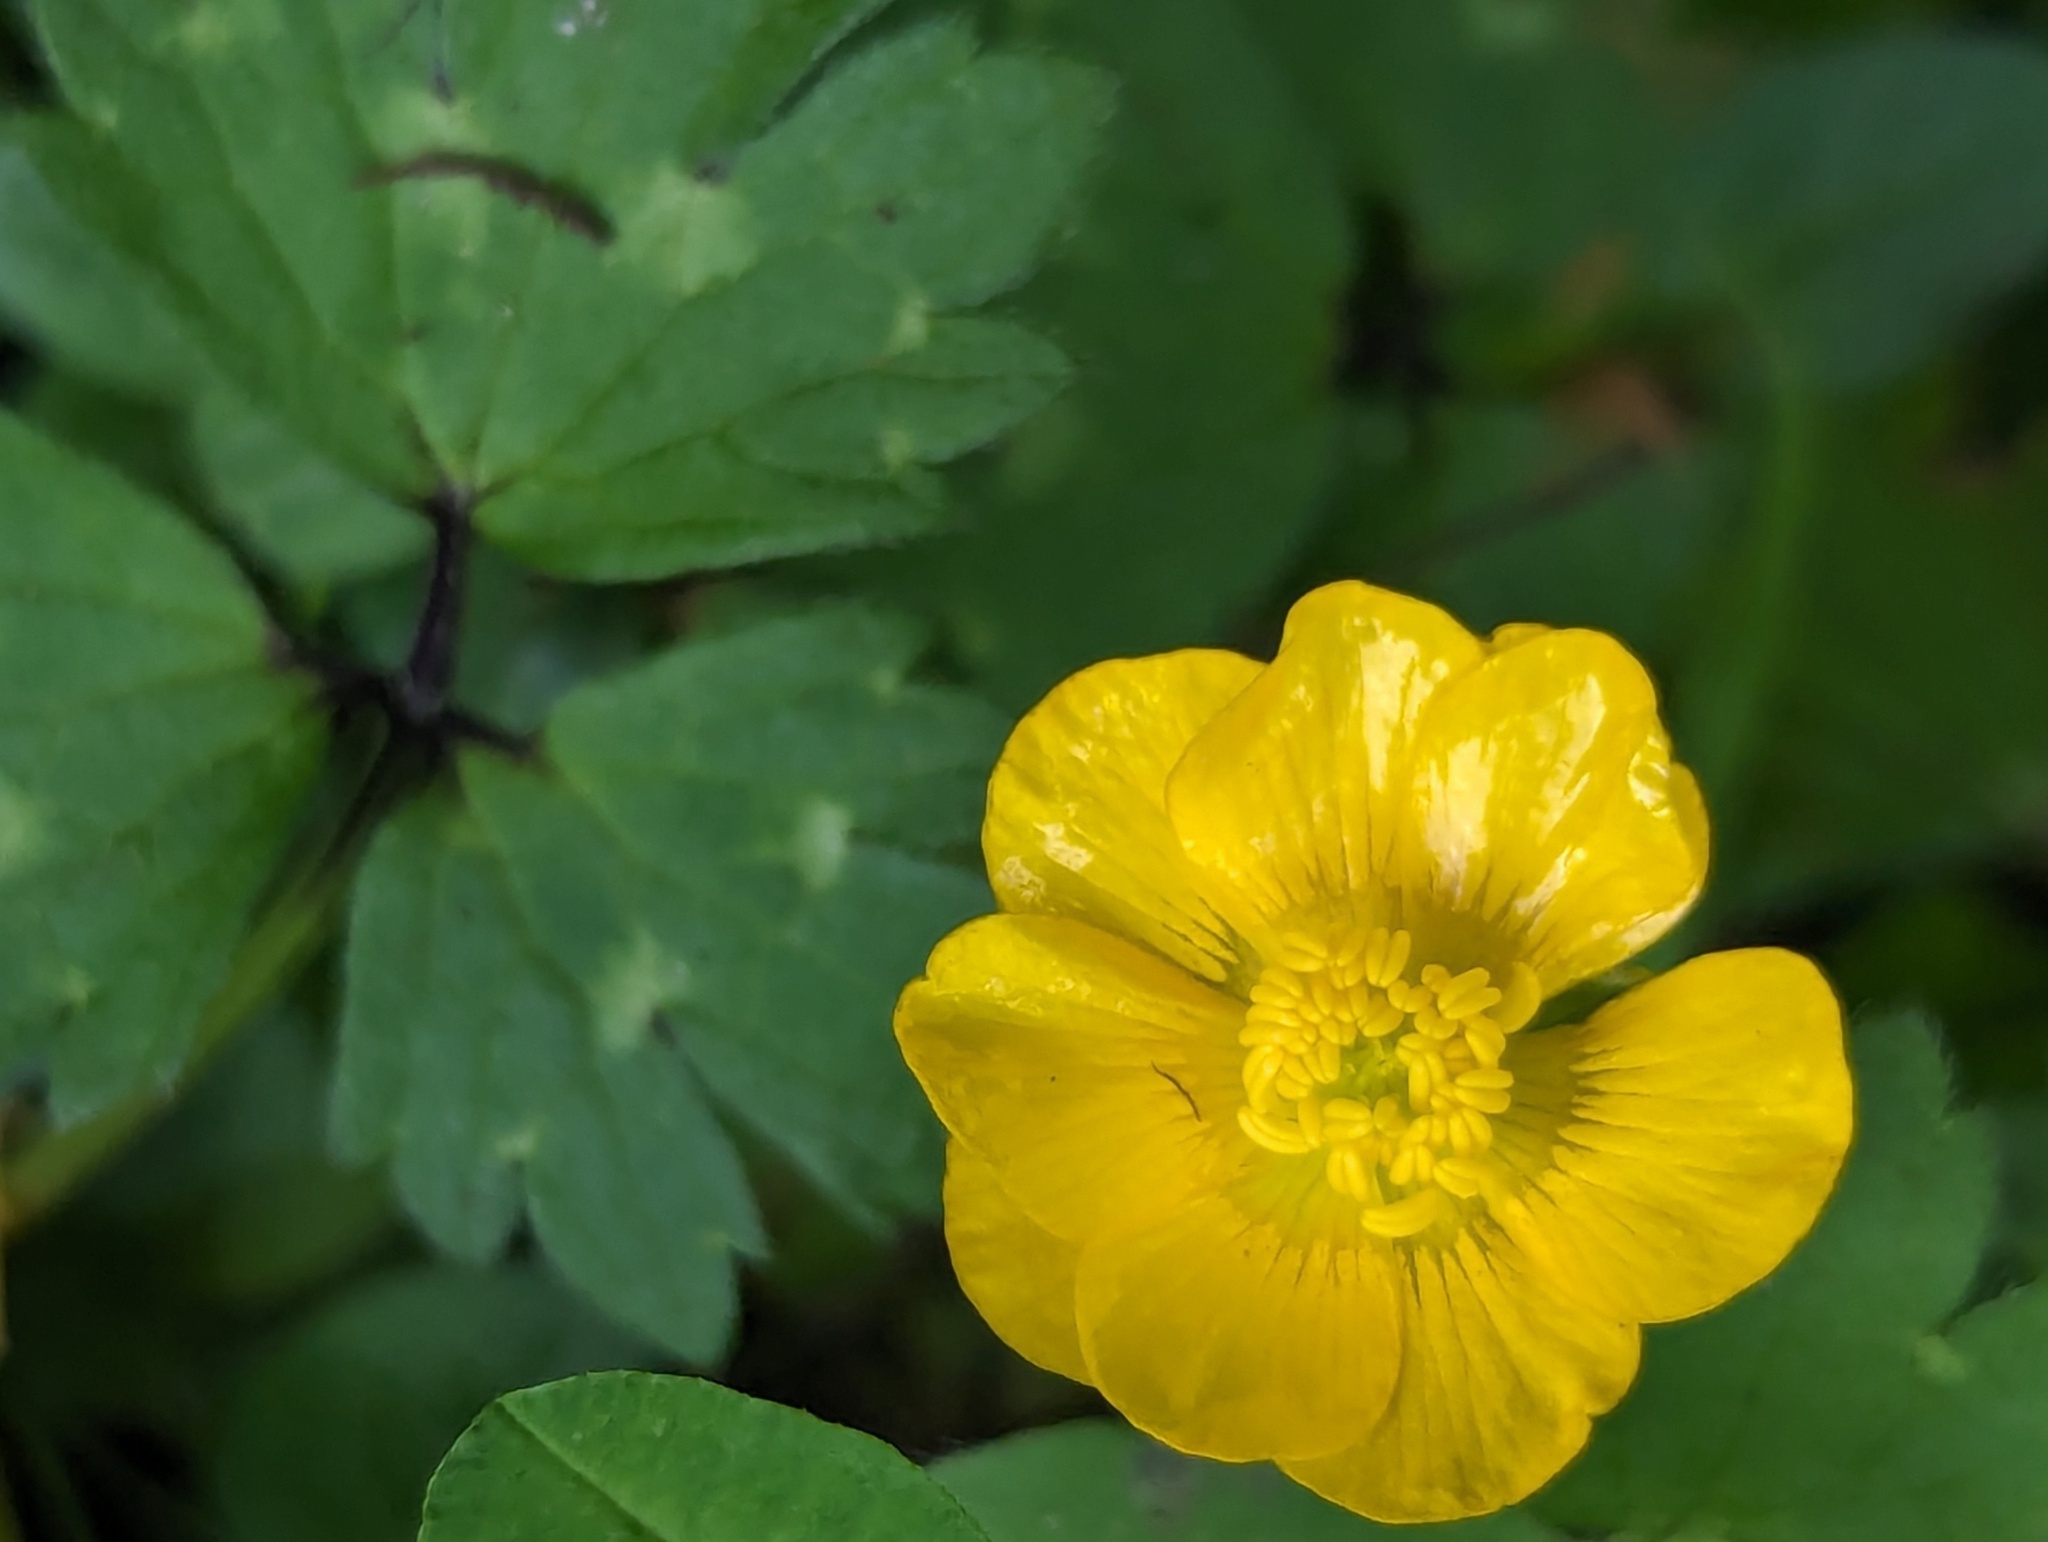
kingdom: Plantae
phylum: Tracheophyta
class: Magnoliopsida
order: Ranunculales
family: Ranunculaceae
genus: Ranunculus
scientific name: Ranunculus repens
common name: Creeping buttercup
